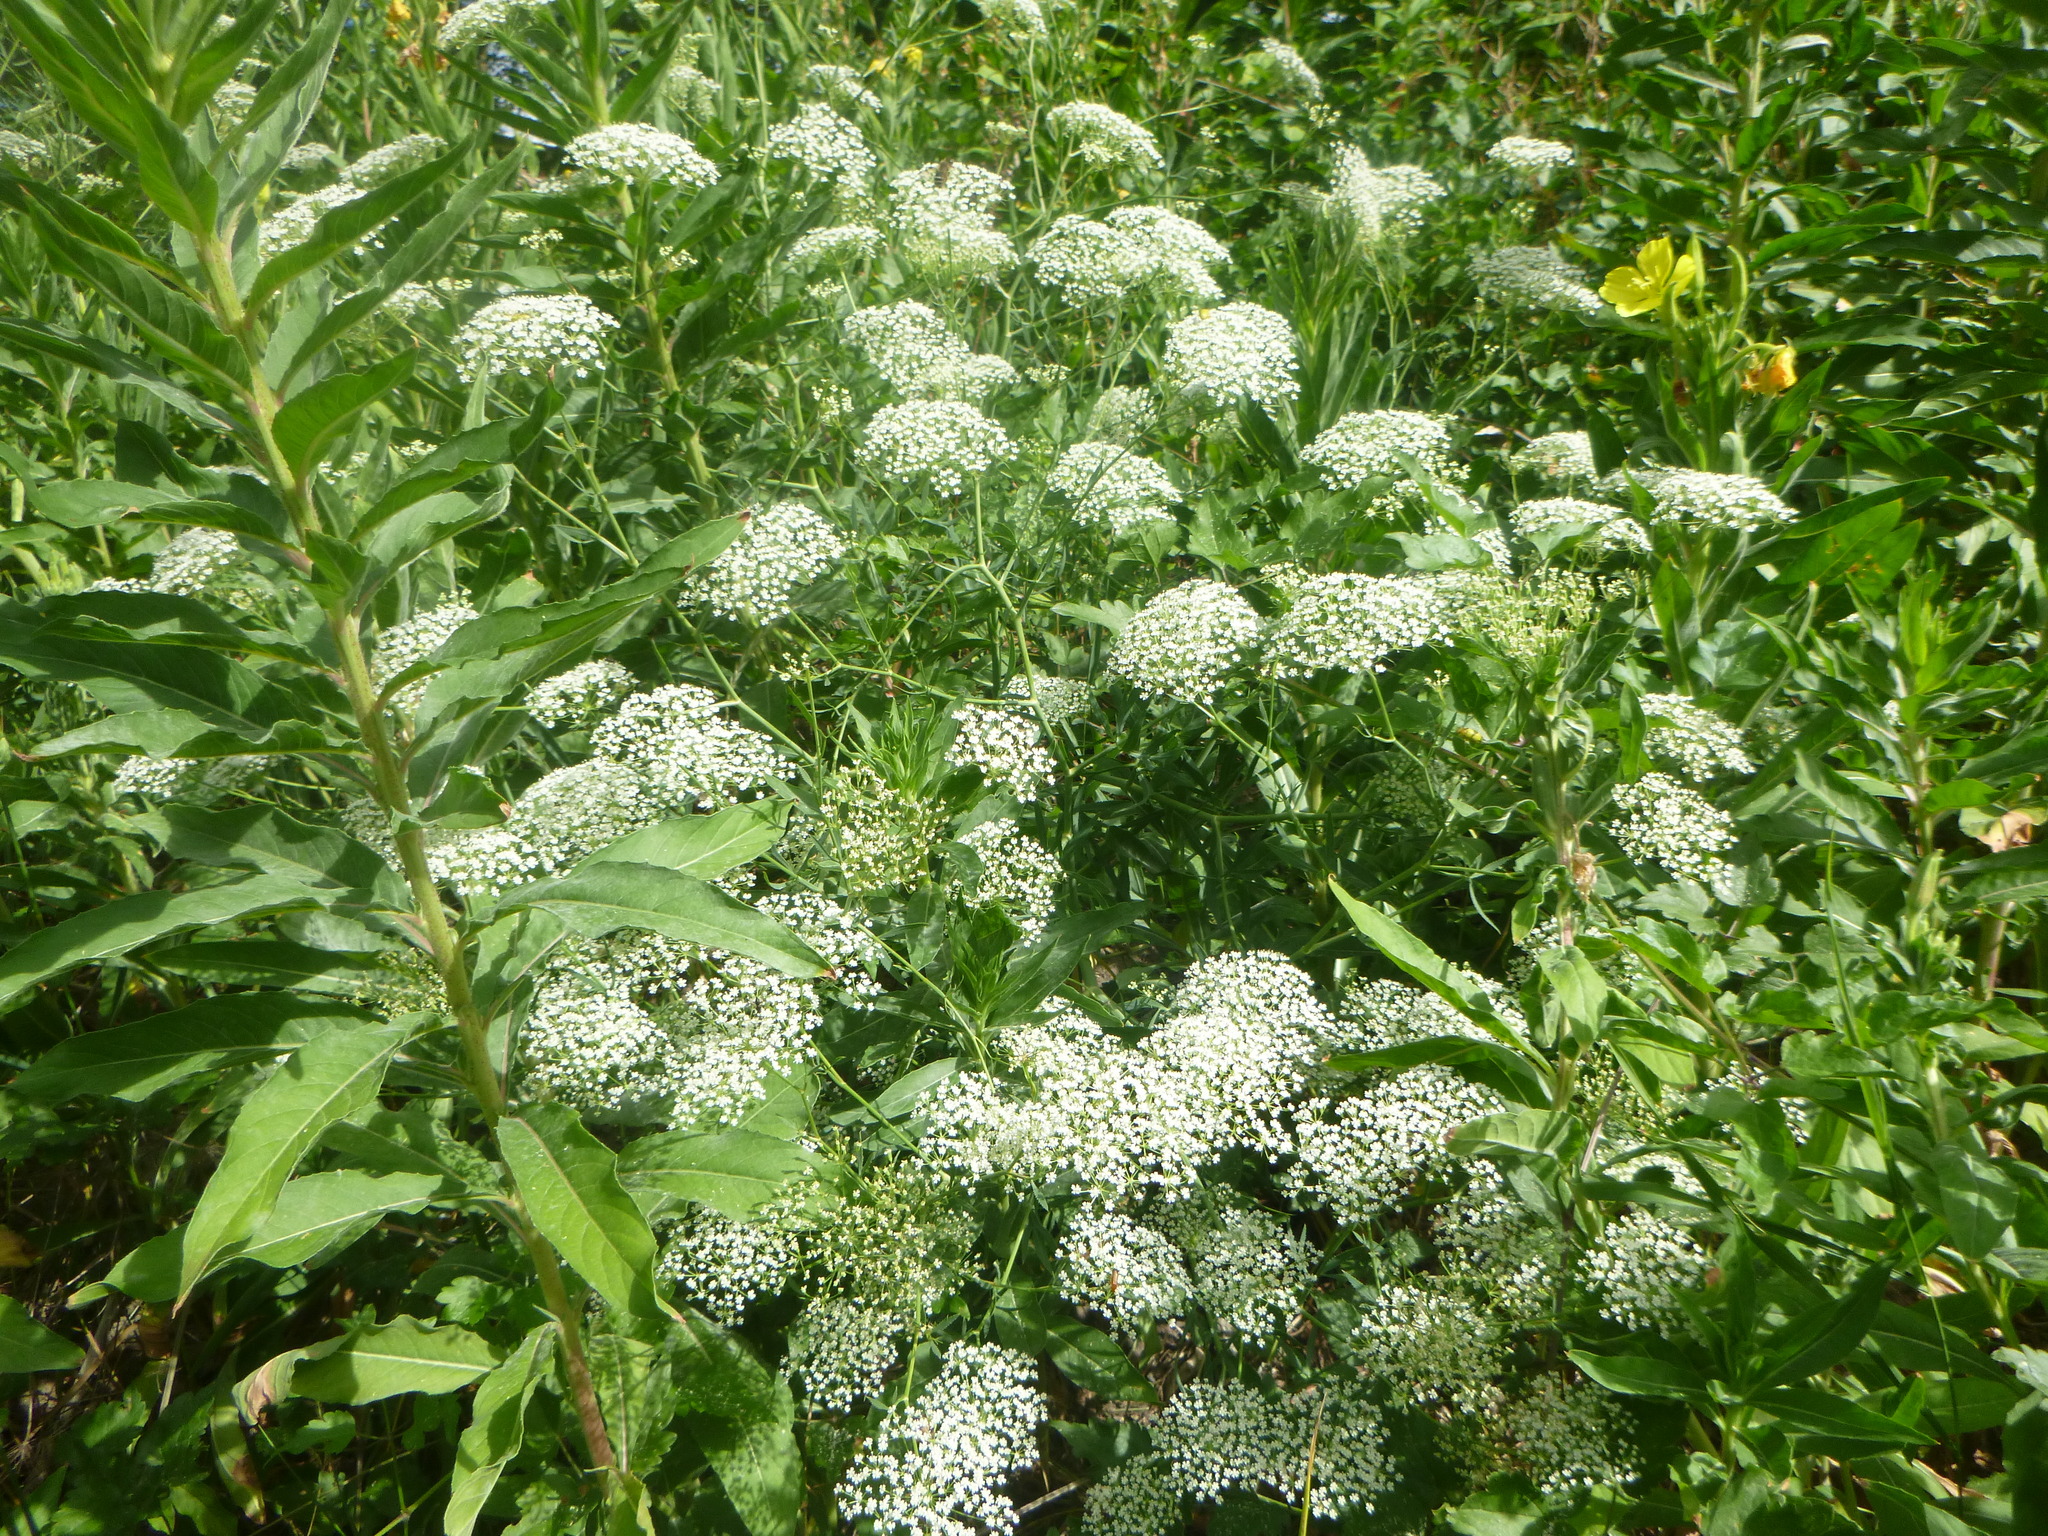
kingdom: Plantae
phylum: Tracheophyta
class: Magnoliopsida
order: Apiales
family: Apiaceae
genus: Falcaria
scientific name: Falcaria vulgaris
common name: Longleaf
